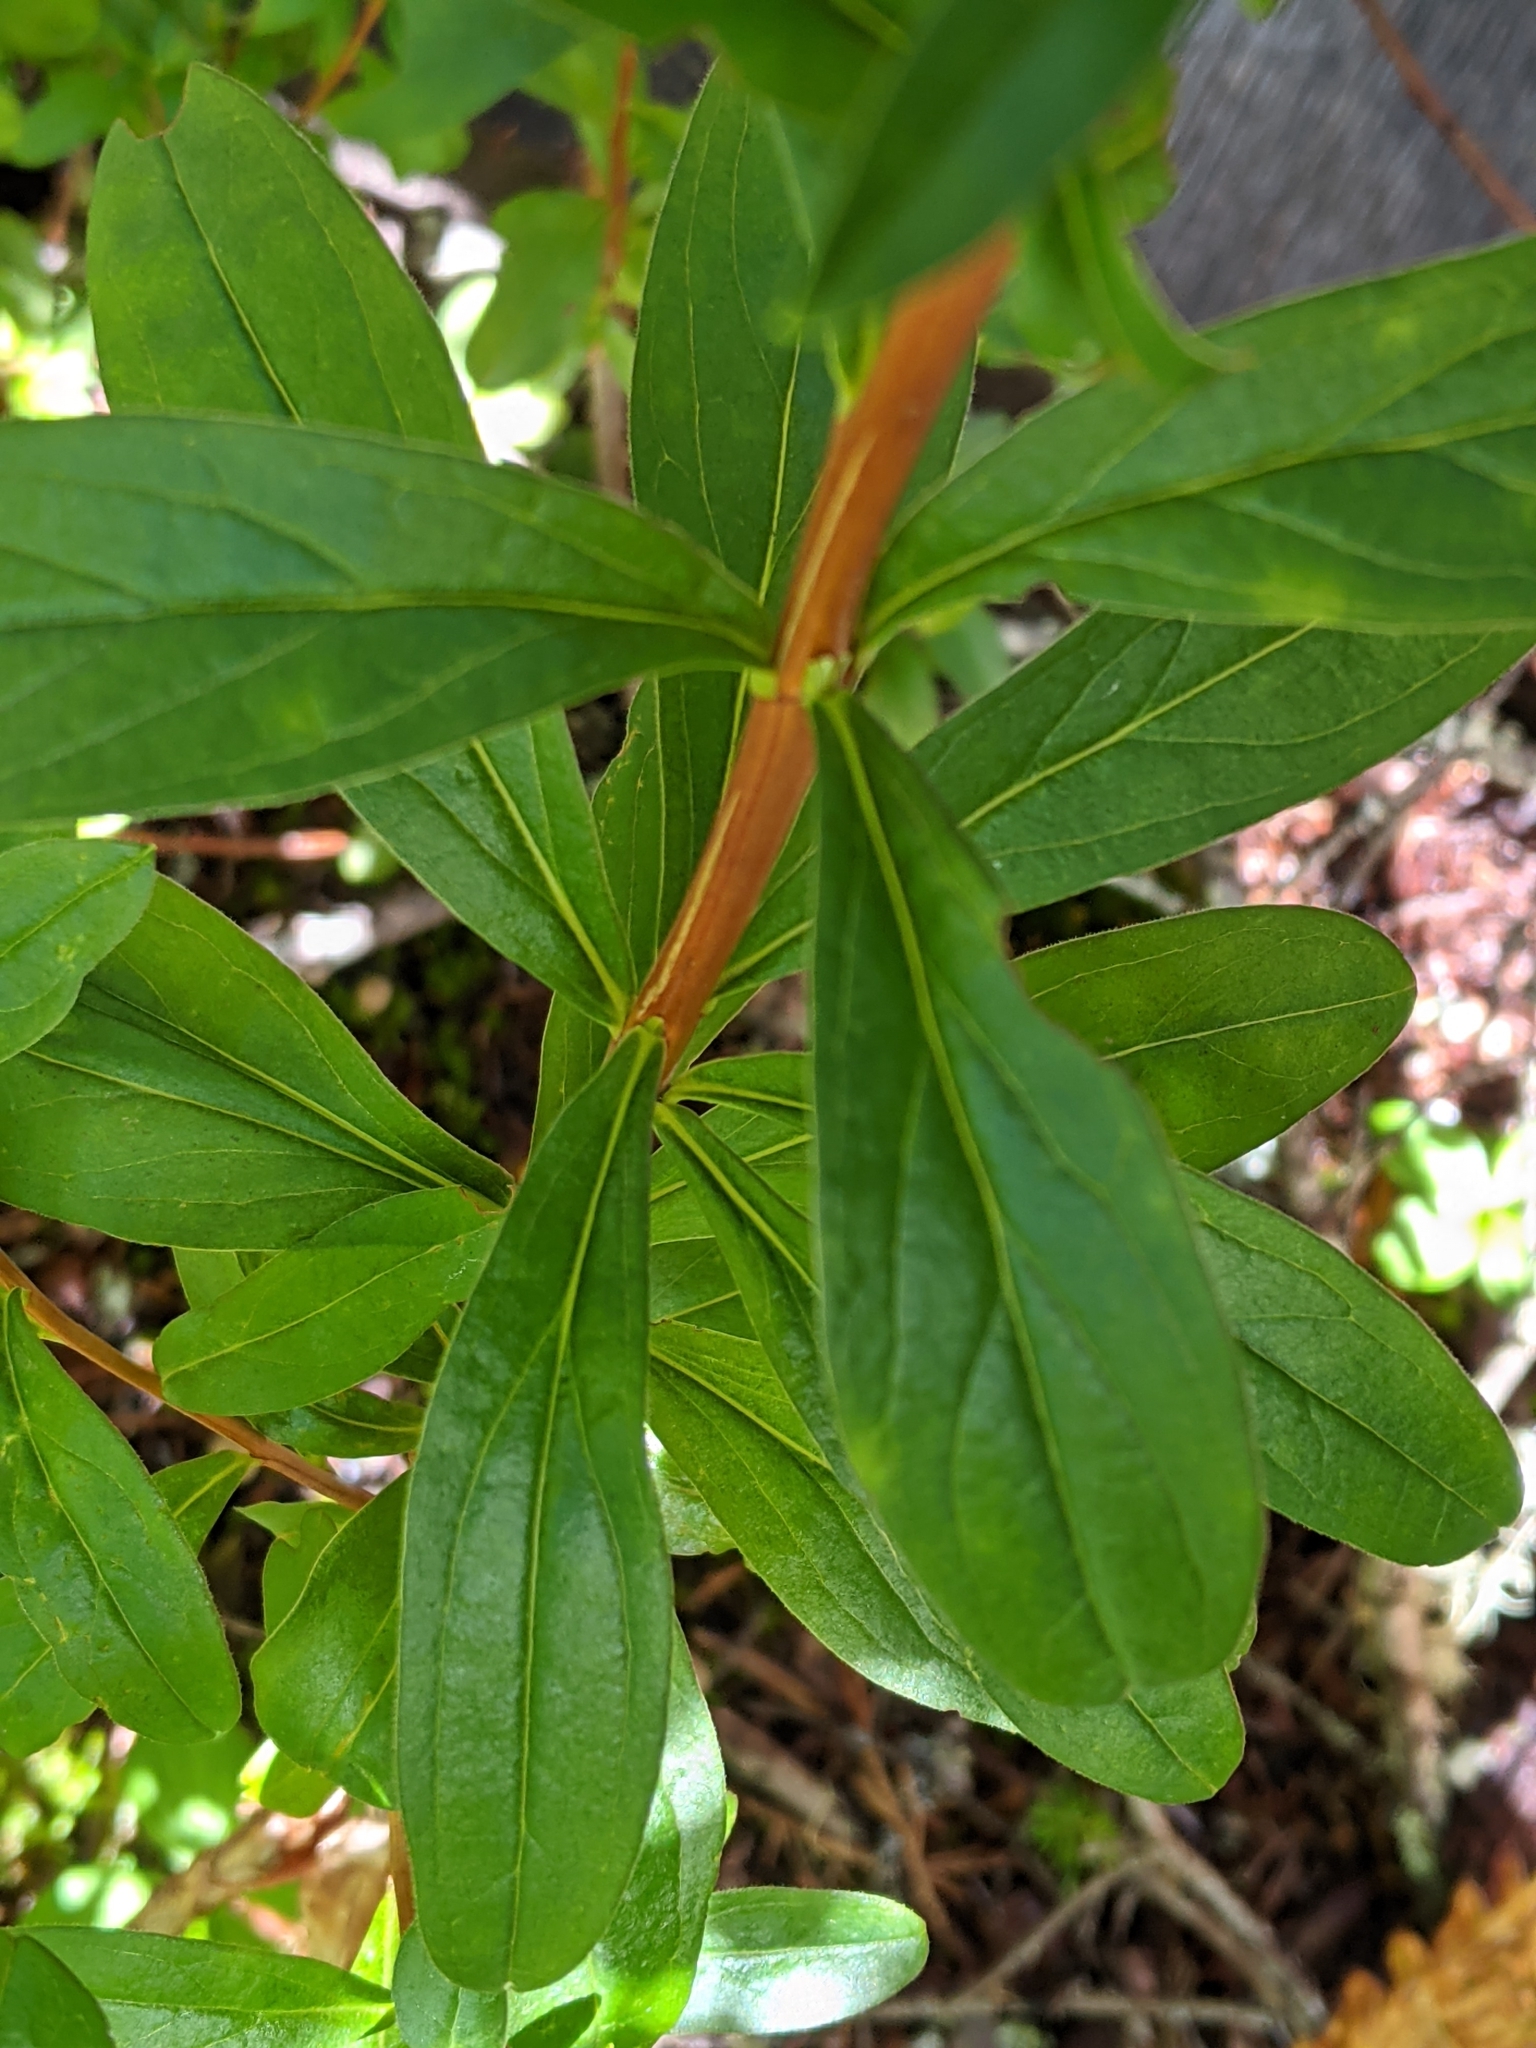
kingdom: Plantae
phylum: Tracheophyta
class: Magnoliopsida
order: Ericales
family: Ericaceae
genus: Elliottia
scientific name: Elliottia pyroliflora
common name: Copperbush
